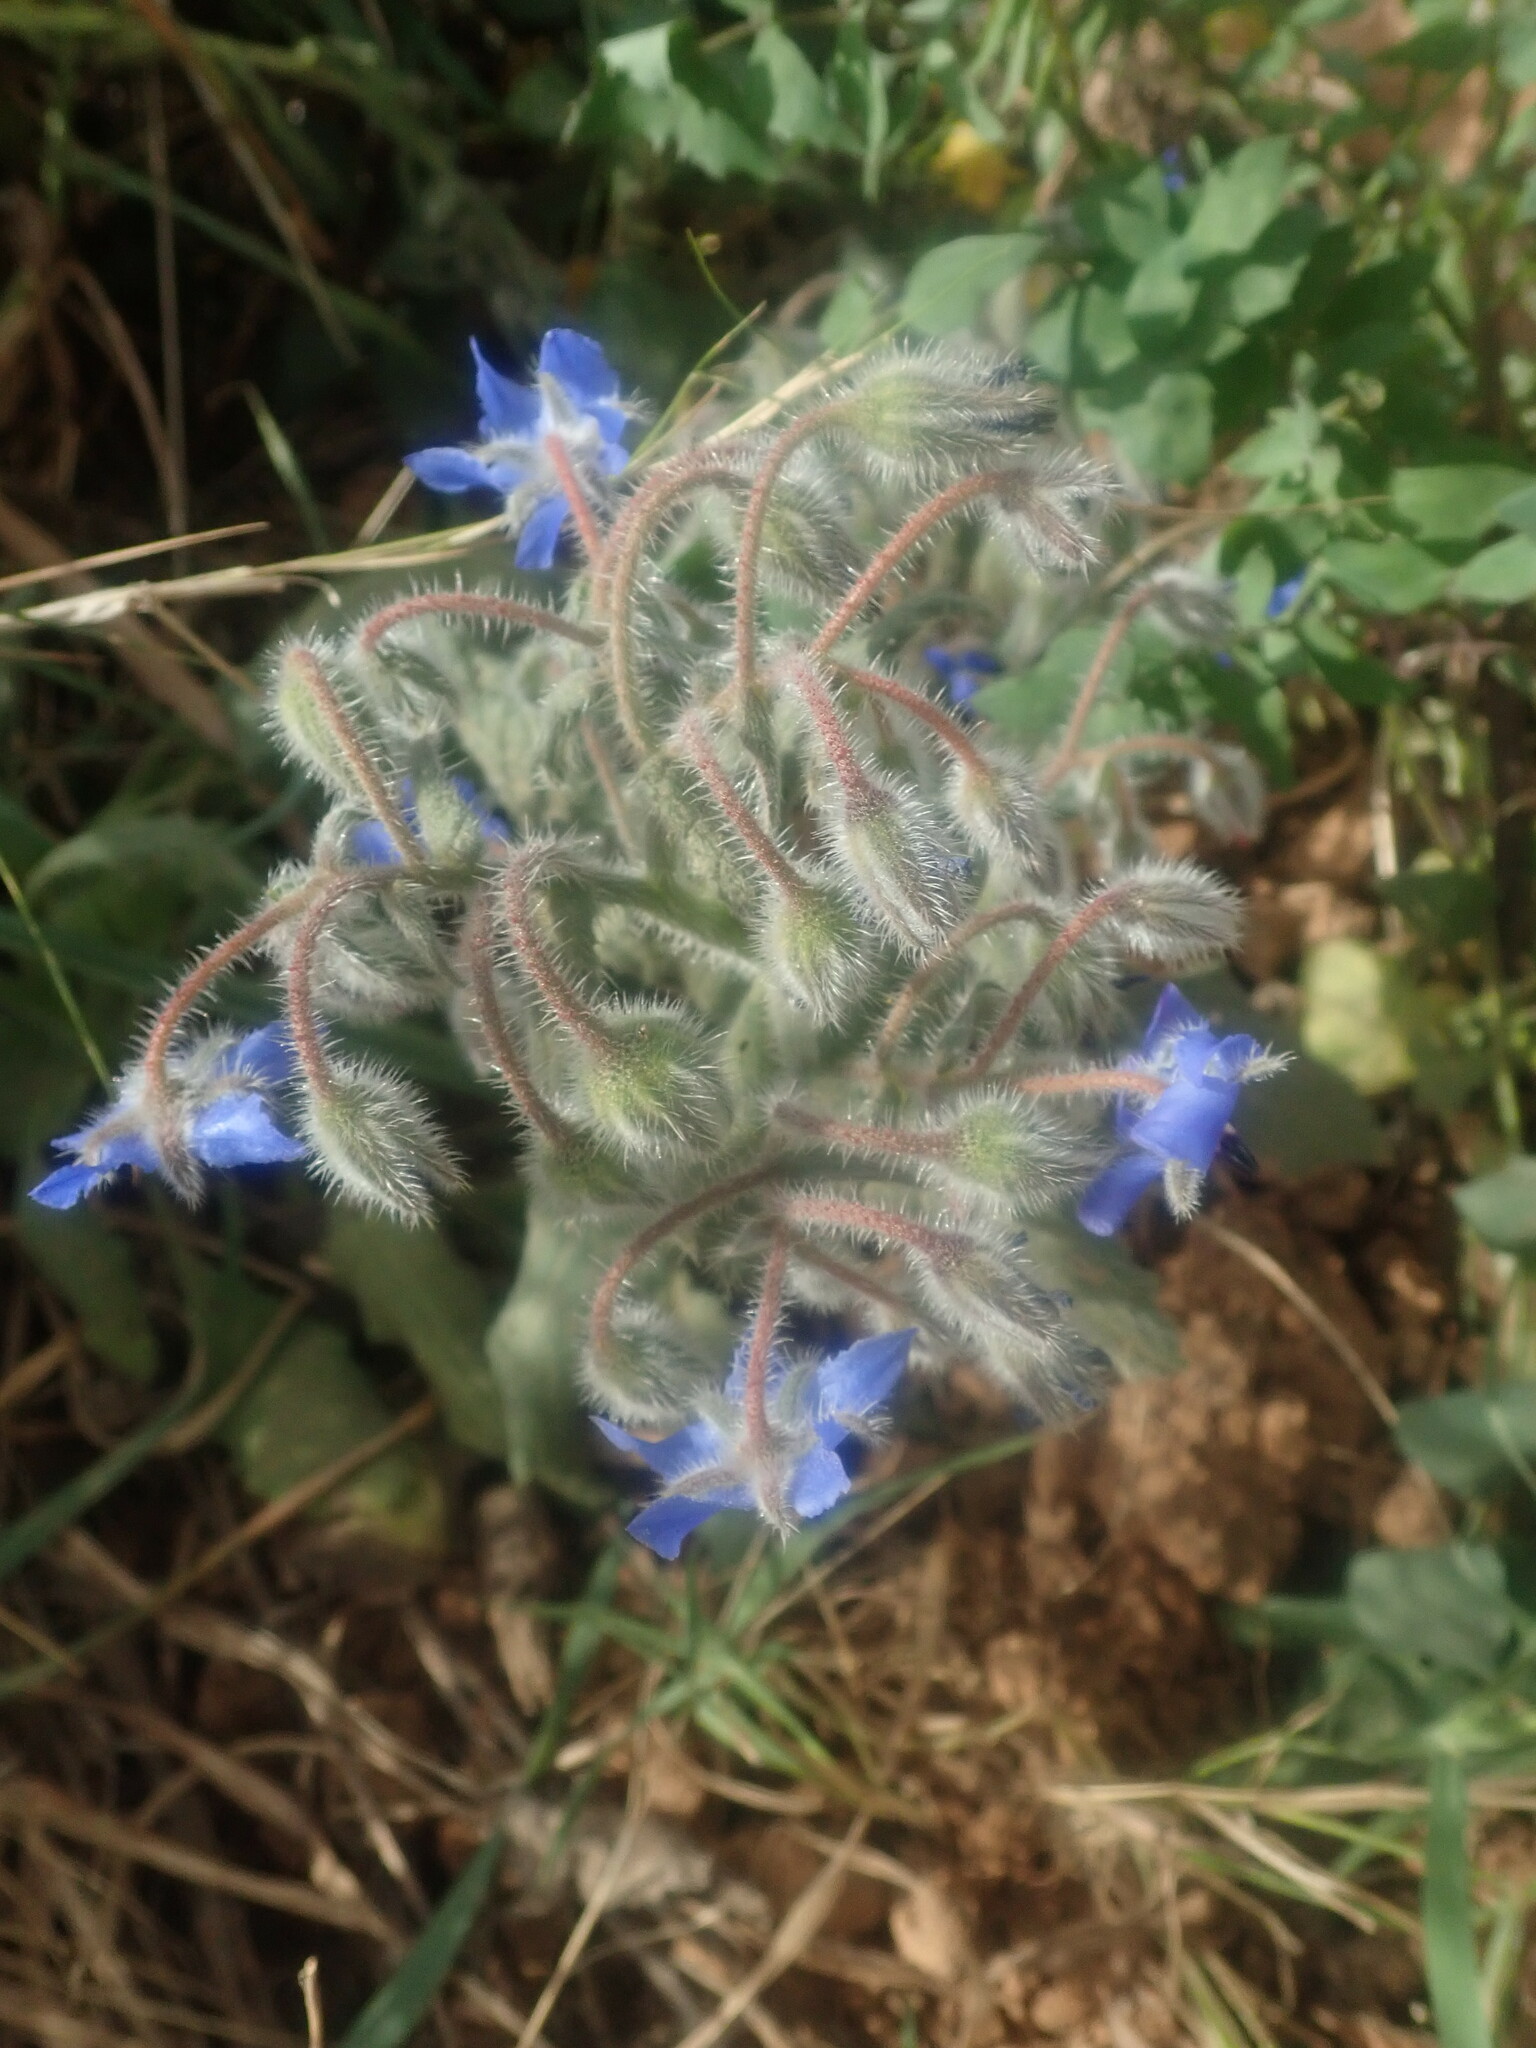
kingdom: Plantae
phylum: Tracheophyta
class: Magnoliopsida
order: Boraginales
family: Boraginaceae
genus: Borago
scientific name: Borago officinalis
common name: Borage
